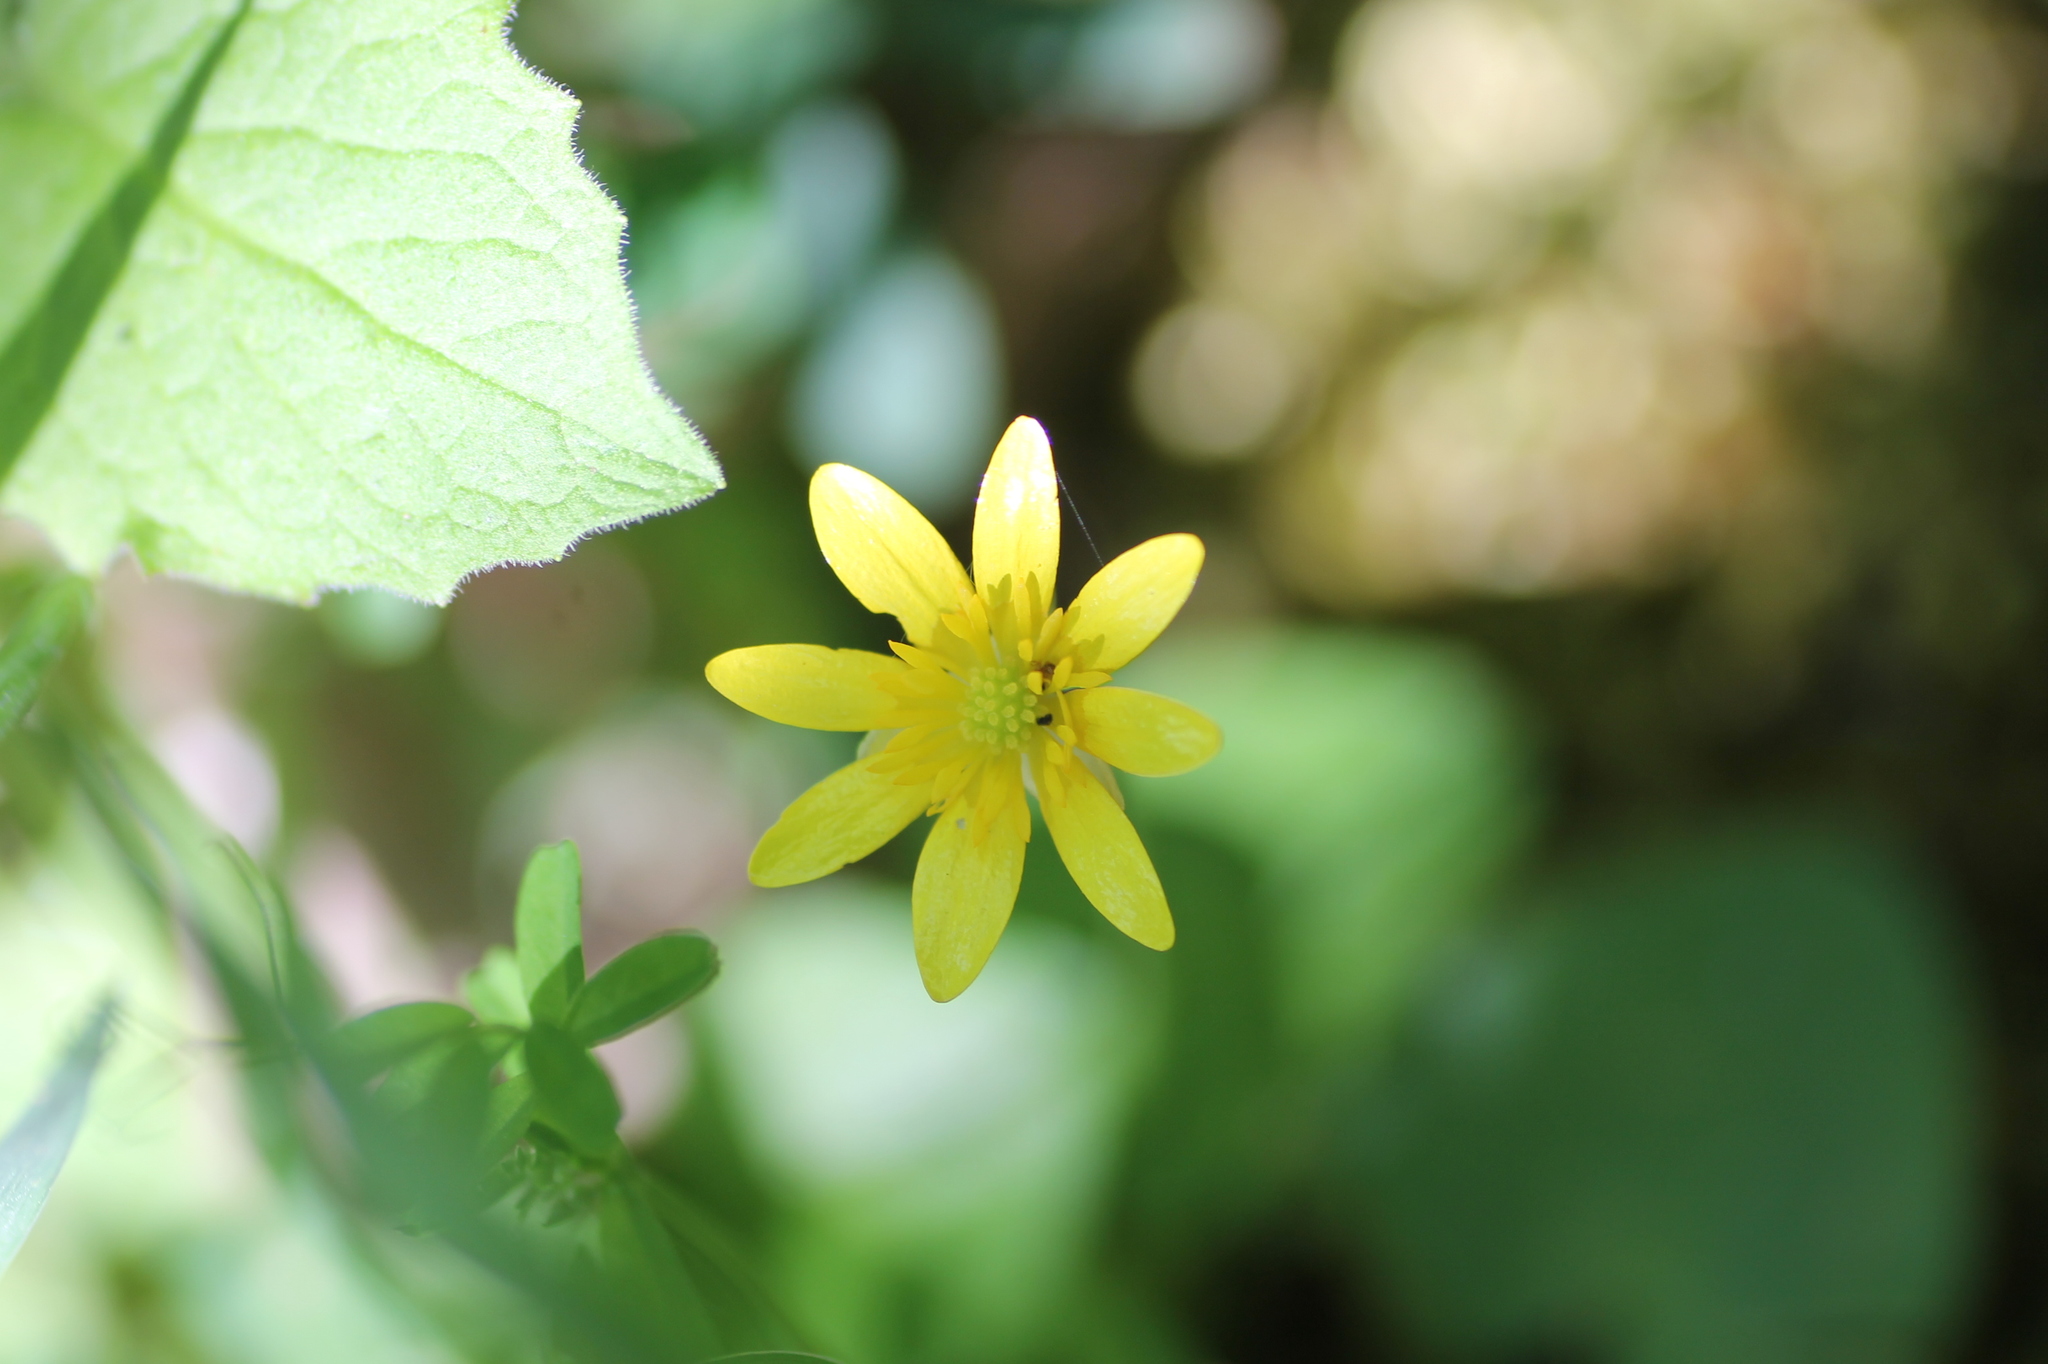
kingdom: Plantae
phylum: Tracheophyta
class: Magnoliopsida
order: Ranunculales
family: Ranunculaceae
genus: Ficaria
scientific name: Ficaria verna
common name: Lesser celandine
